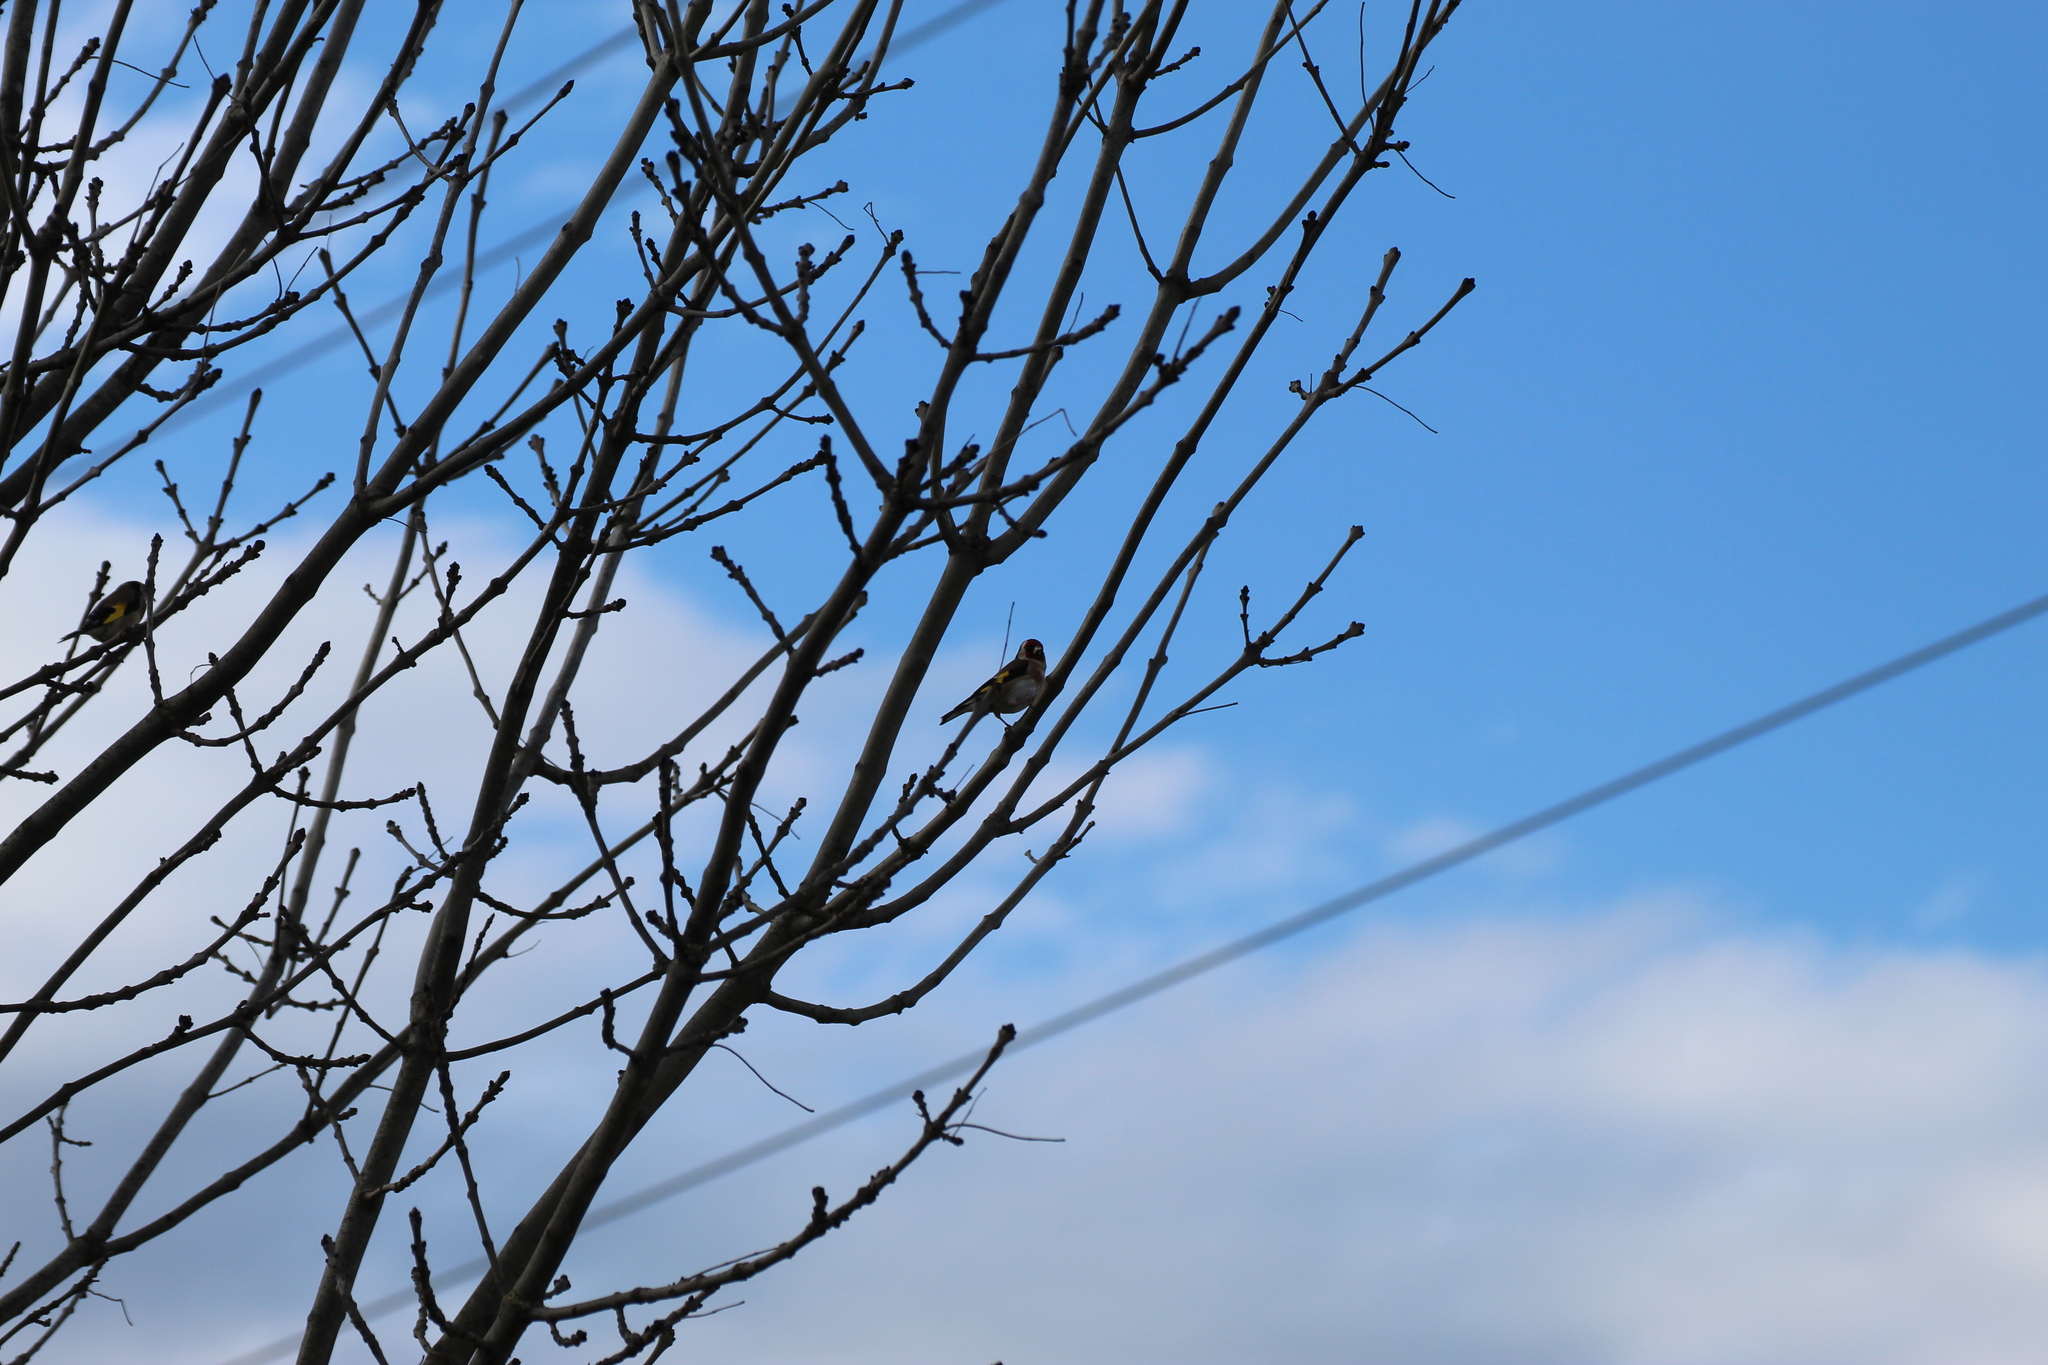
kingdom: Animalia
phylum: Chordata
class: Aves
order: Passeriformes
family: Fringillidae
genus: Carduelis
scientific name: Carduelis carduelis
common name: European goldfinch
